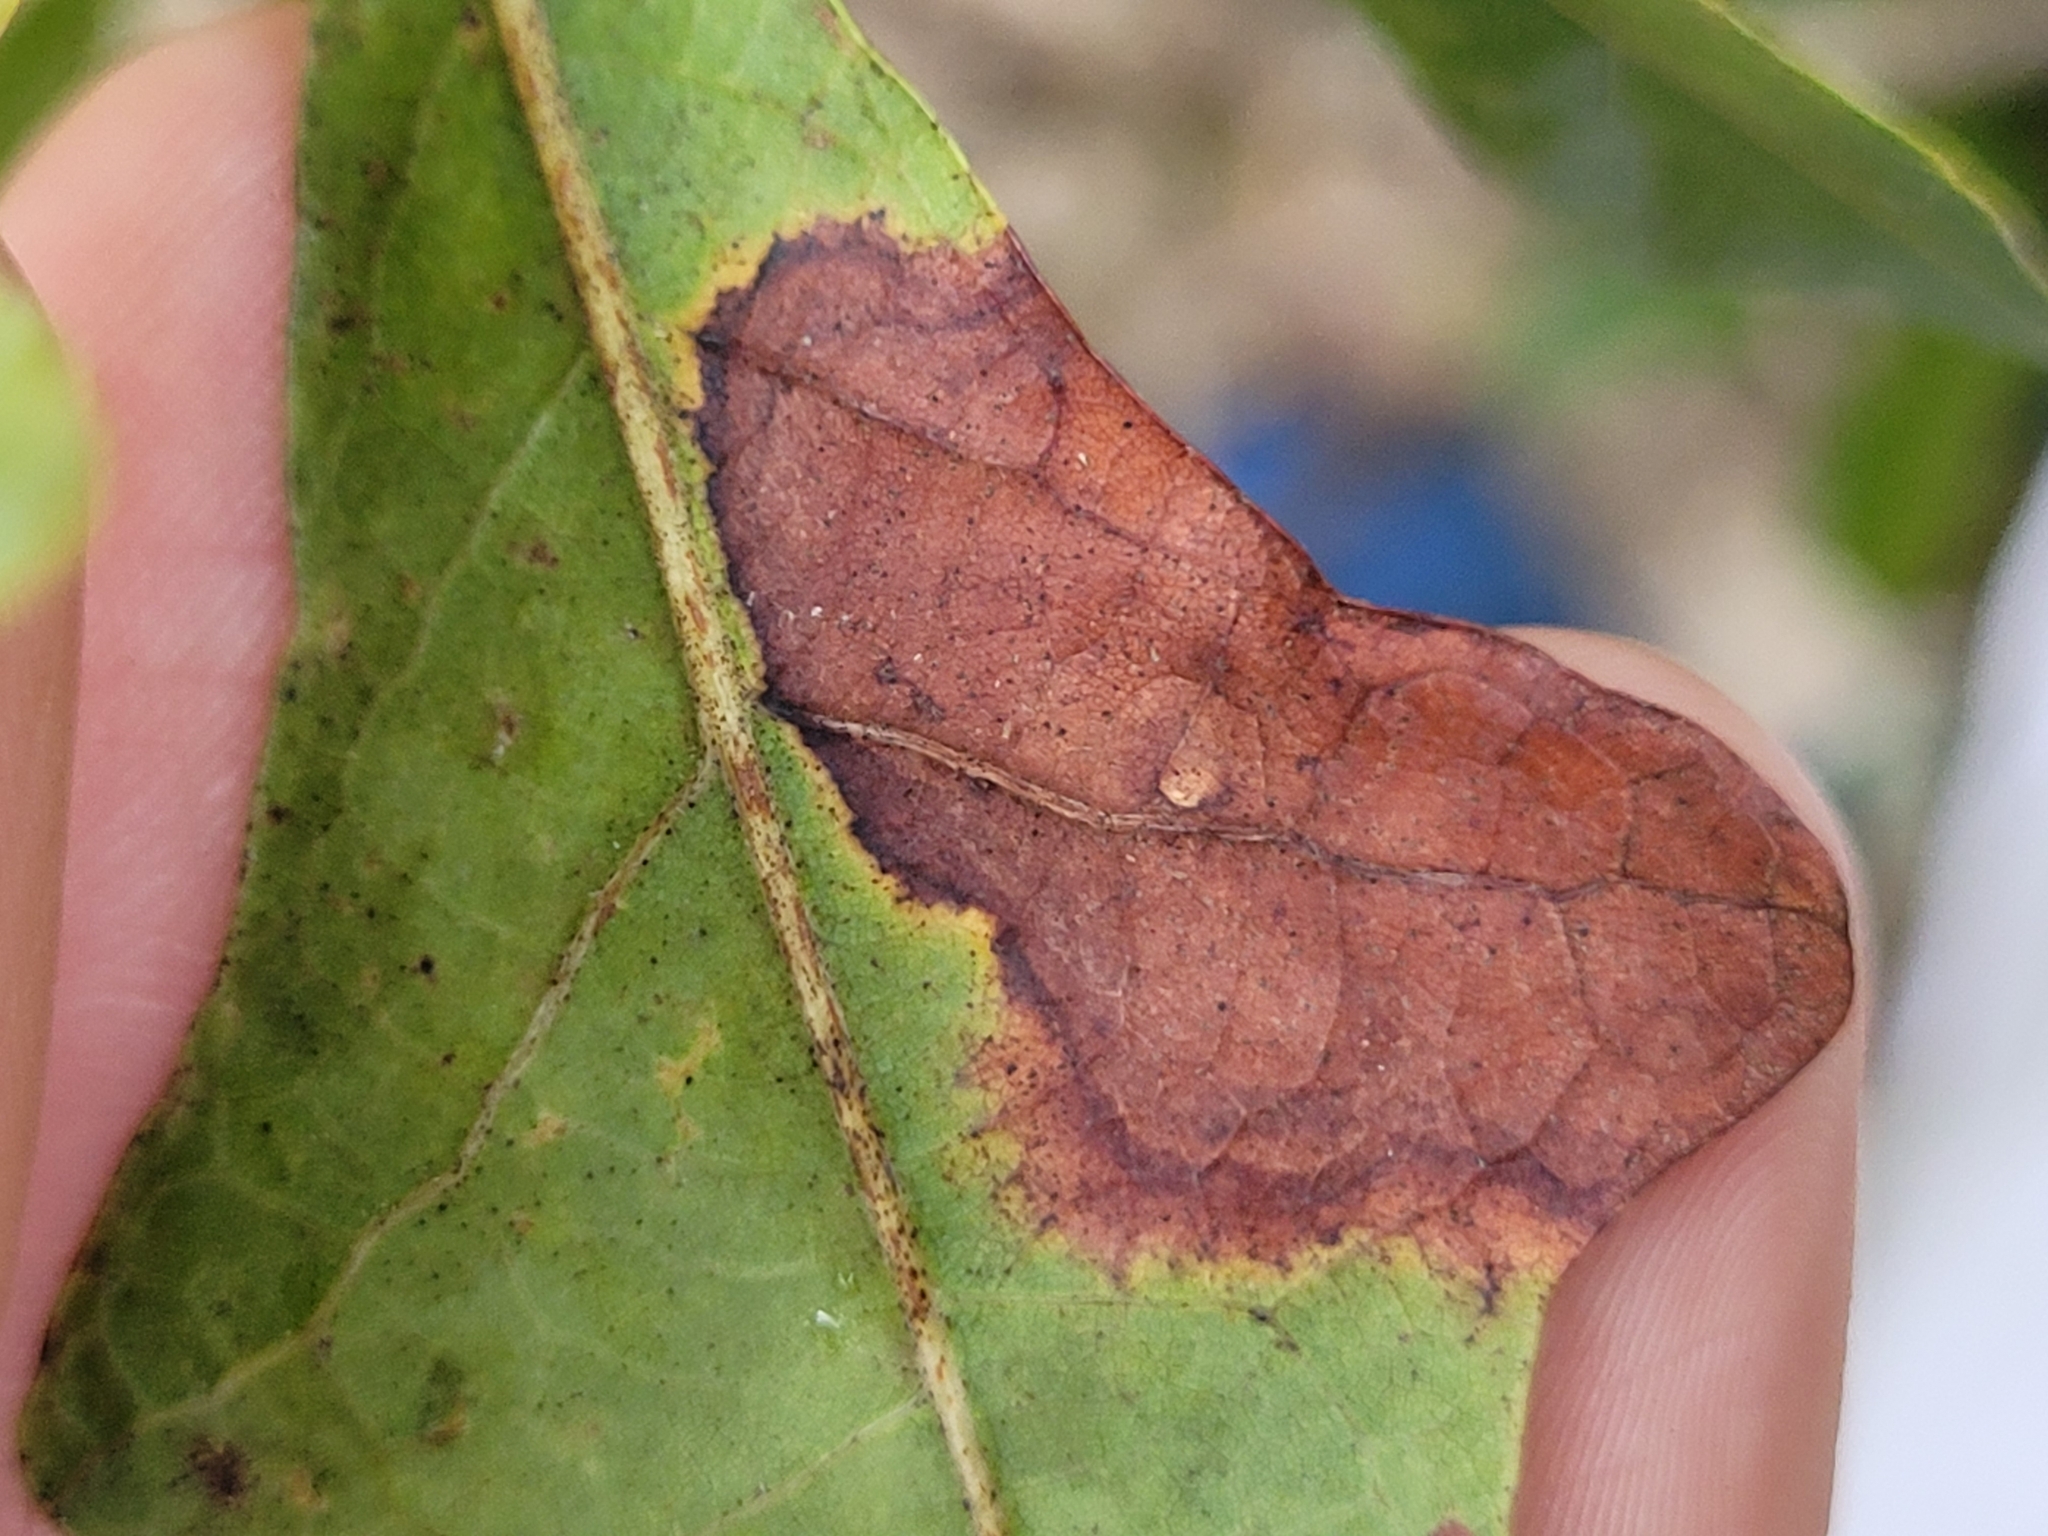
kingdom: Animalia
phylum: Arthropoda
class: Insecta
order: Lepidoptera
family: Tischeriidae
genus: Tischeria
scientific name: Tischeria quercitella
